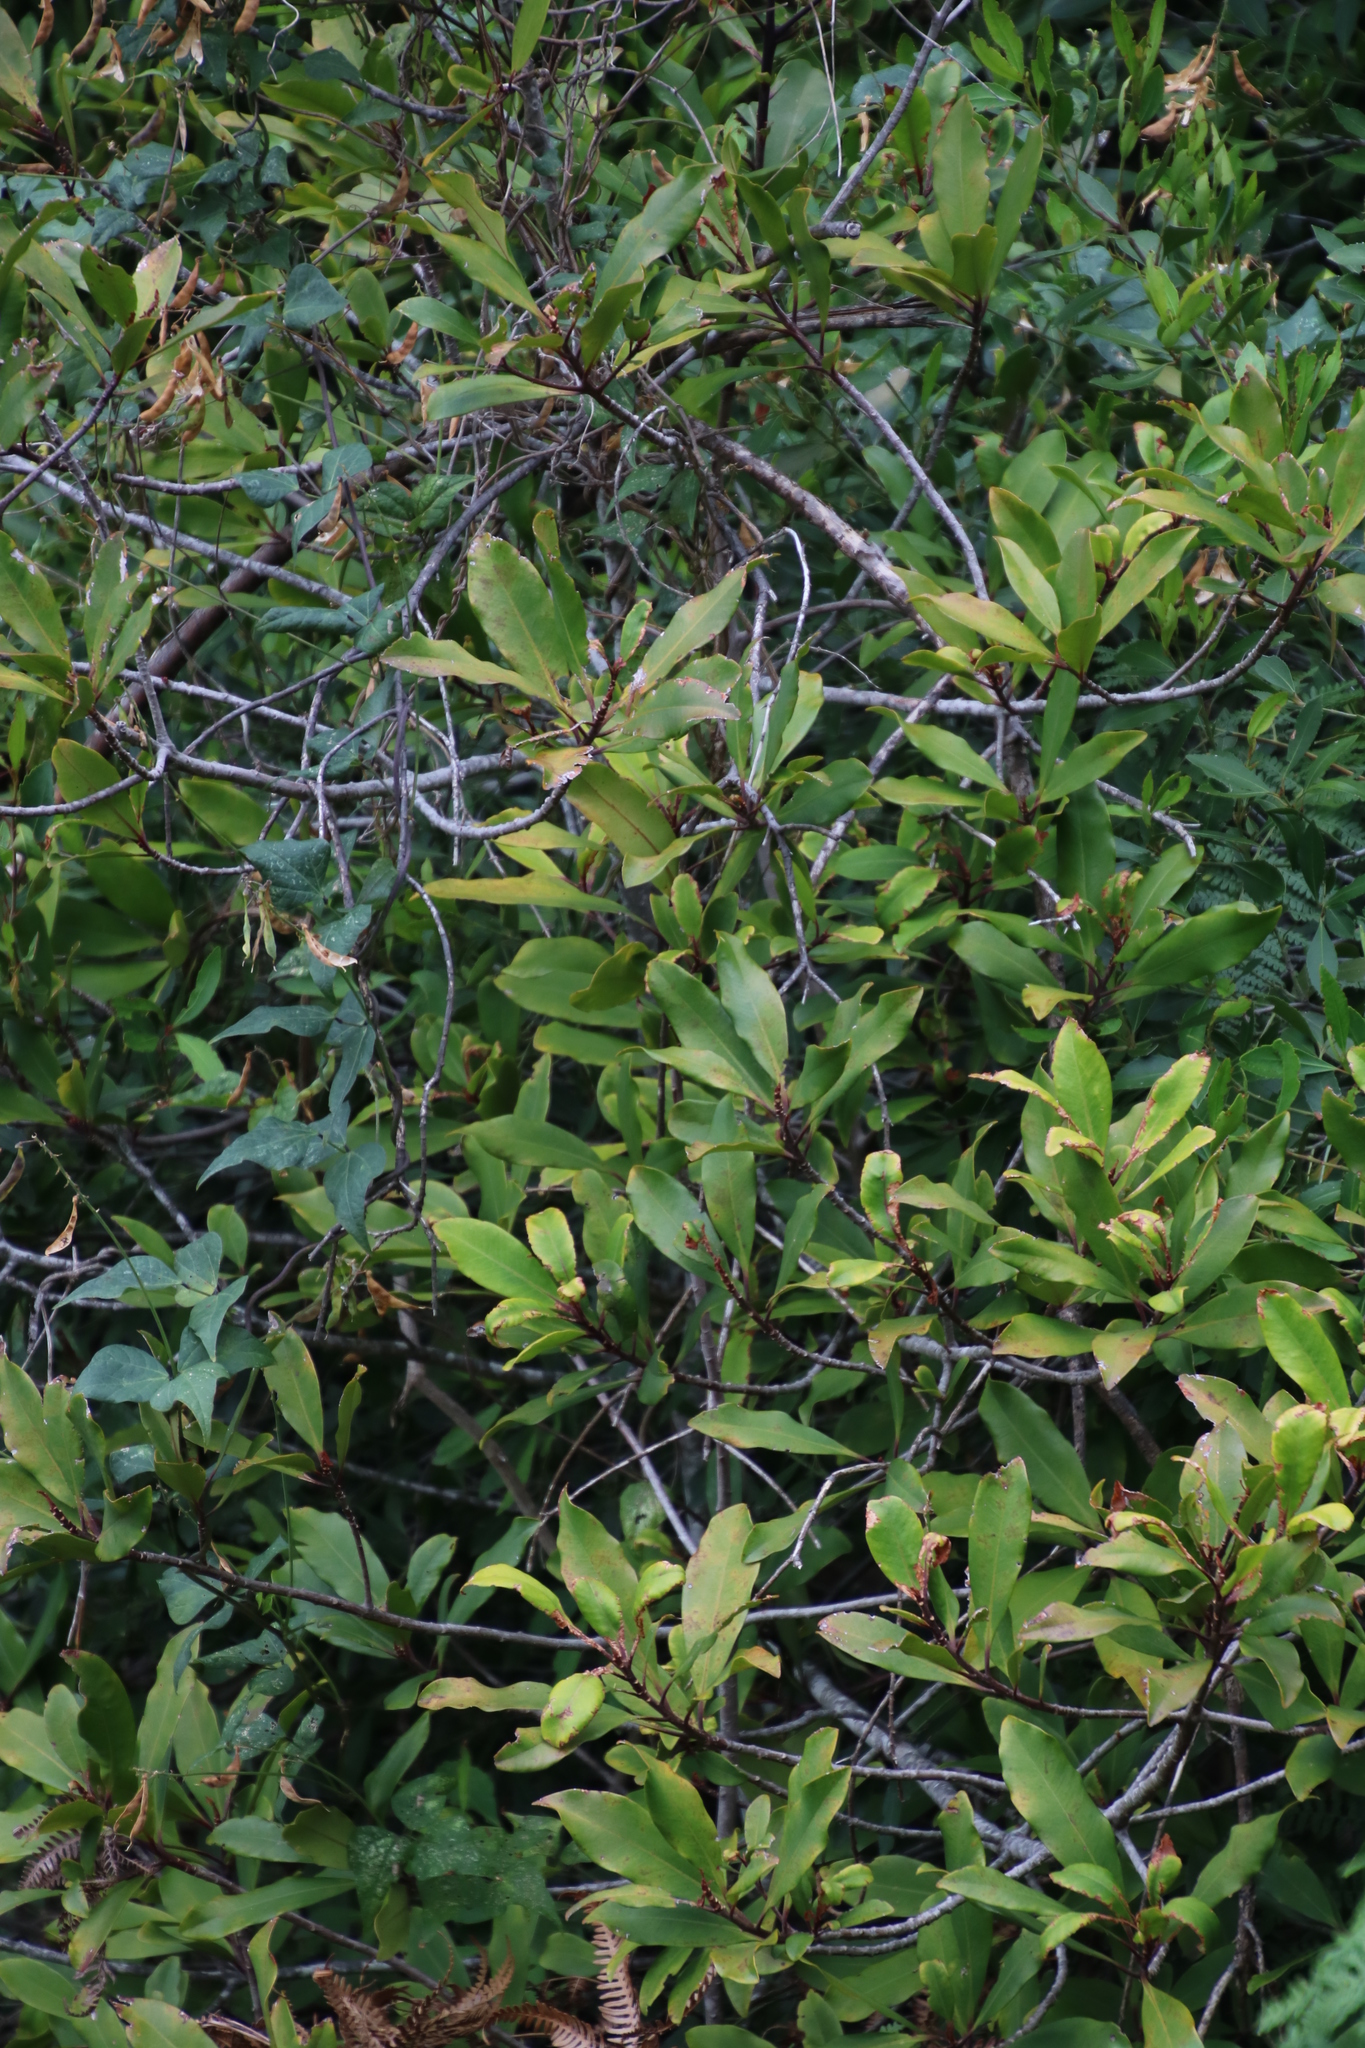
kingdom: Plantae
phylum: Tracheophyta
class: Magnoliopsida
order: Ericales
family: Primulaceae
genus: Myrsine
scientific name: Myrsine melanophloeos
